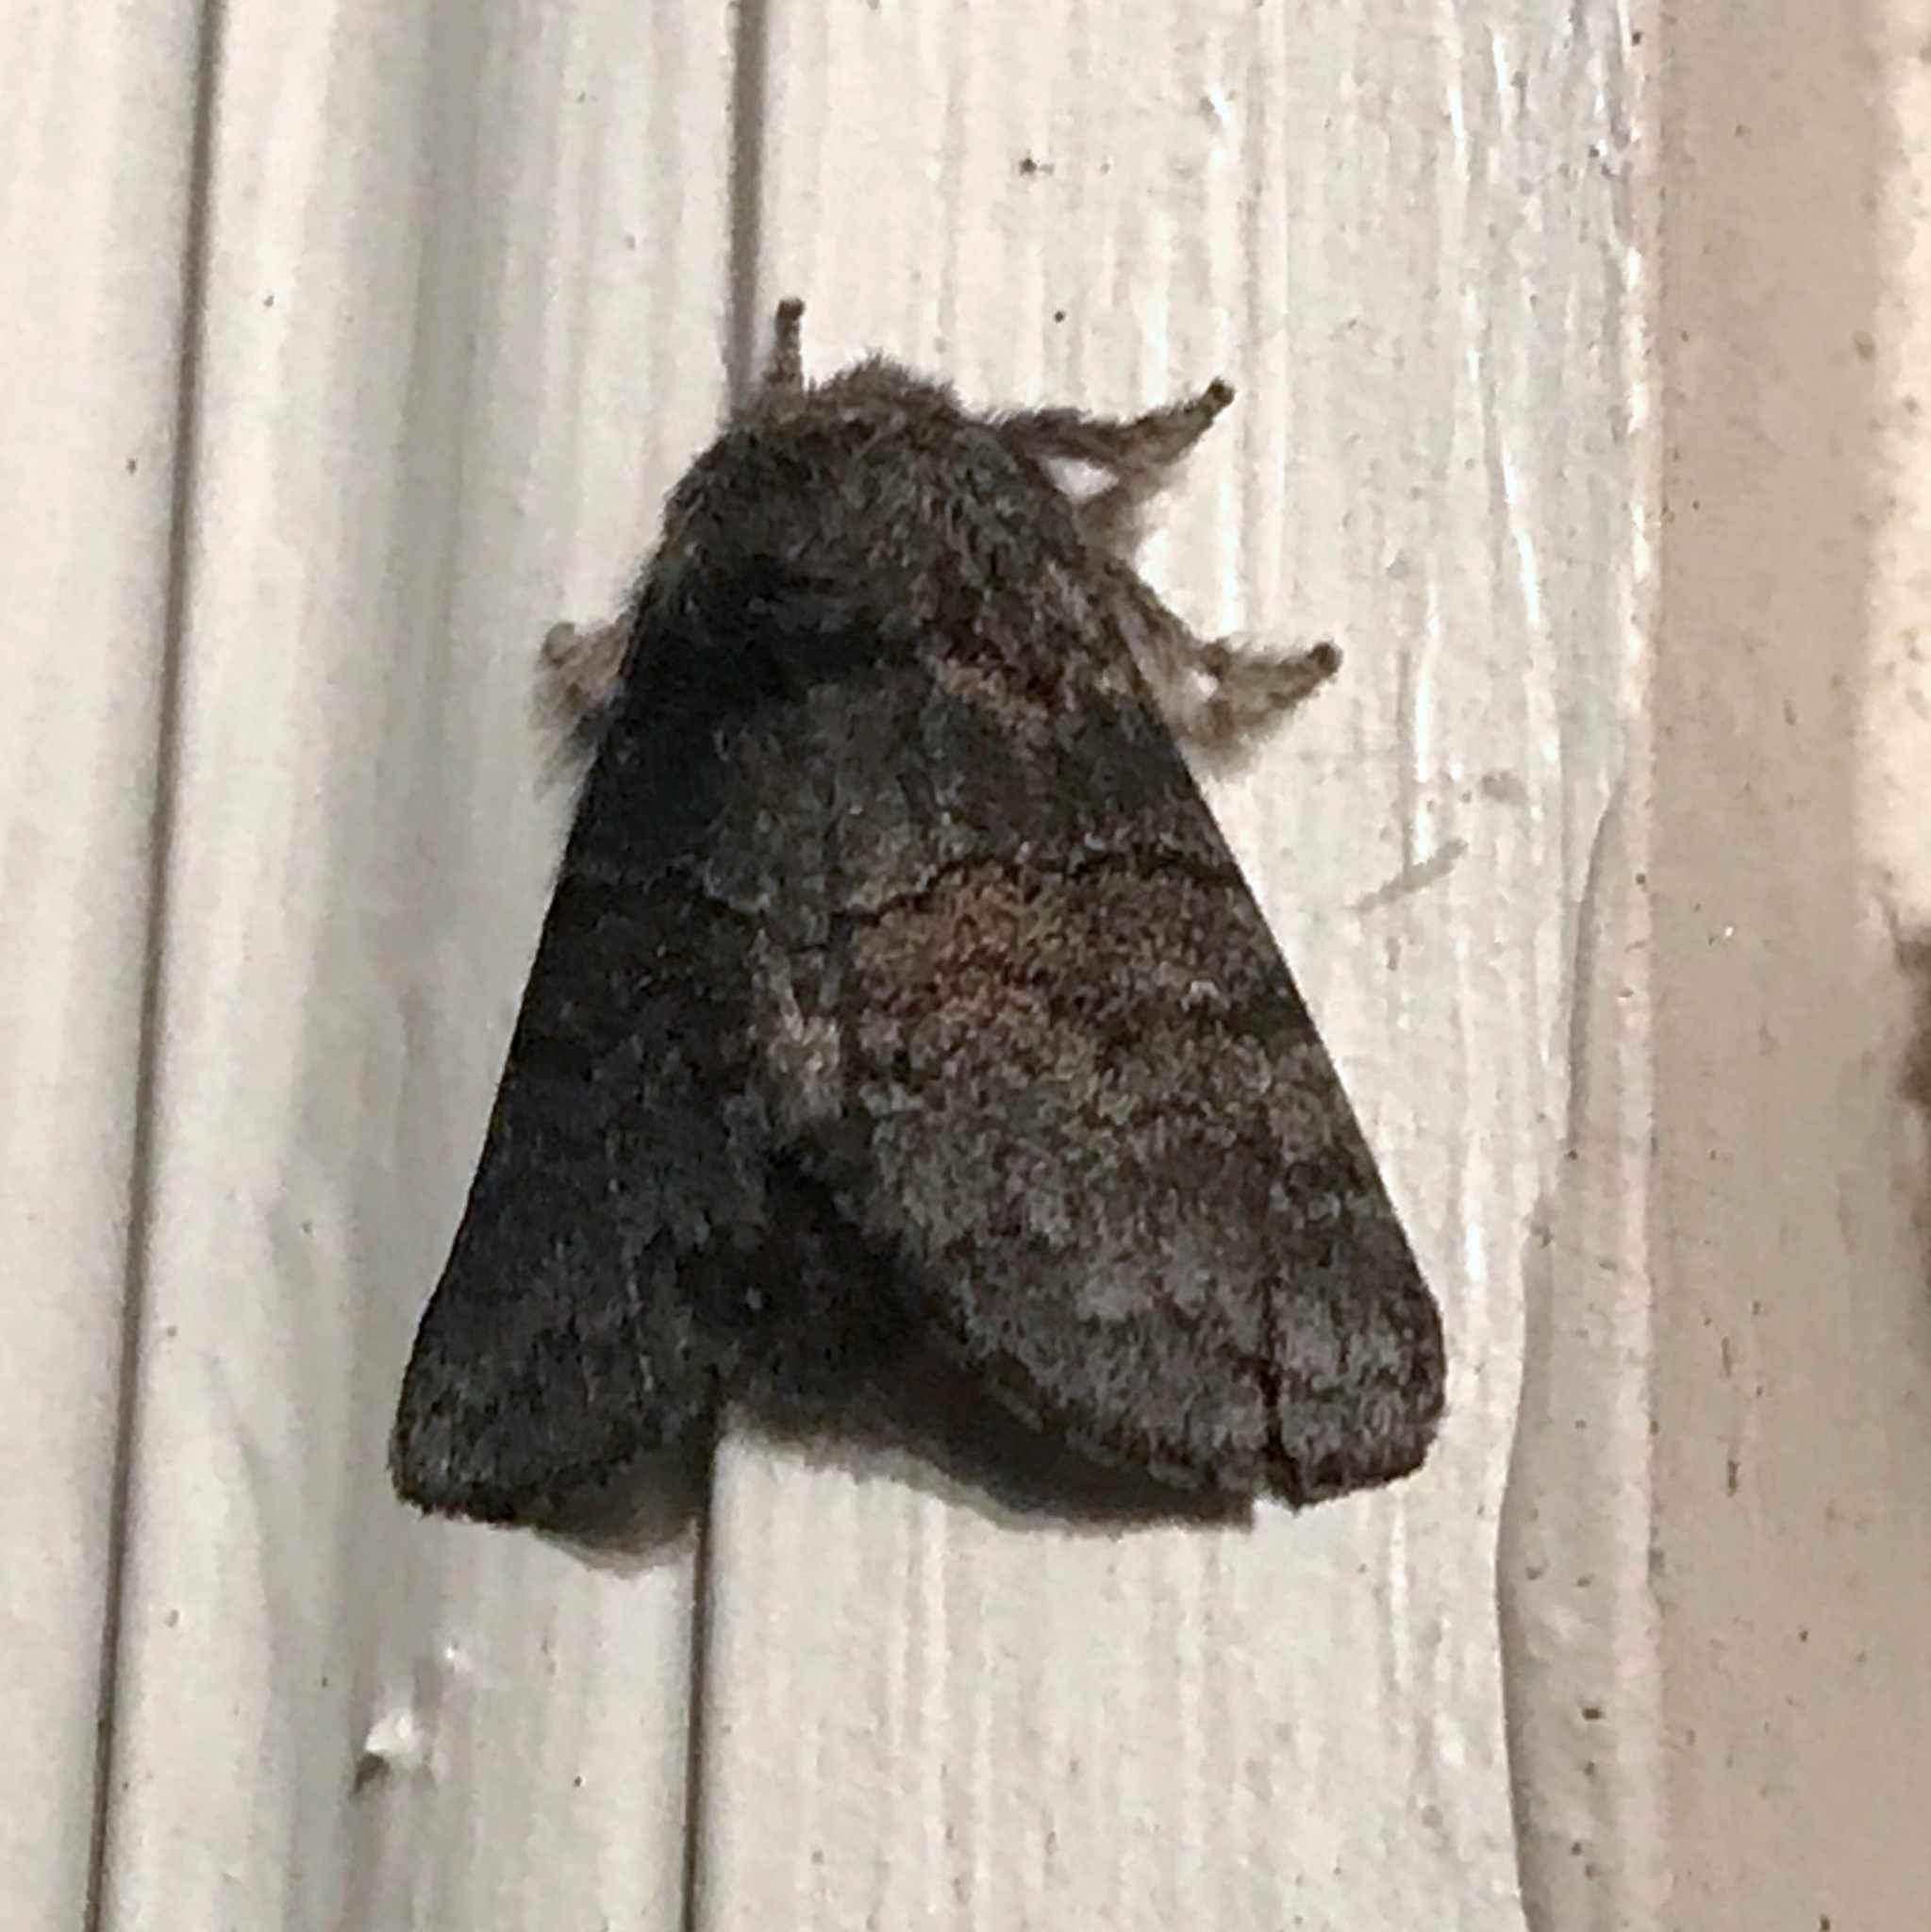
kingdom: Animalia
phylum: Arthropoda
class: Insecta
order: Lepidoptera
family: Notodontidae
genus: Gluphisia
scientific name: Gluphisia septentrionis
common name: Common gluphisia
